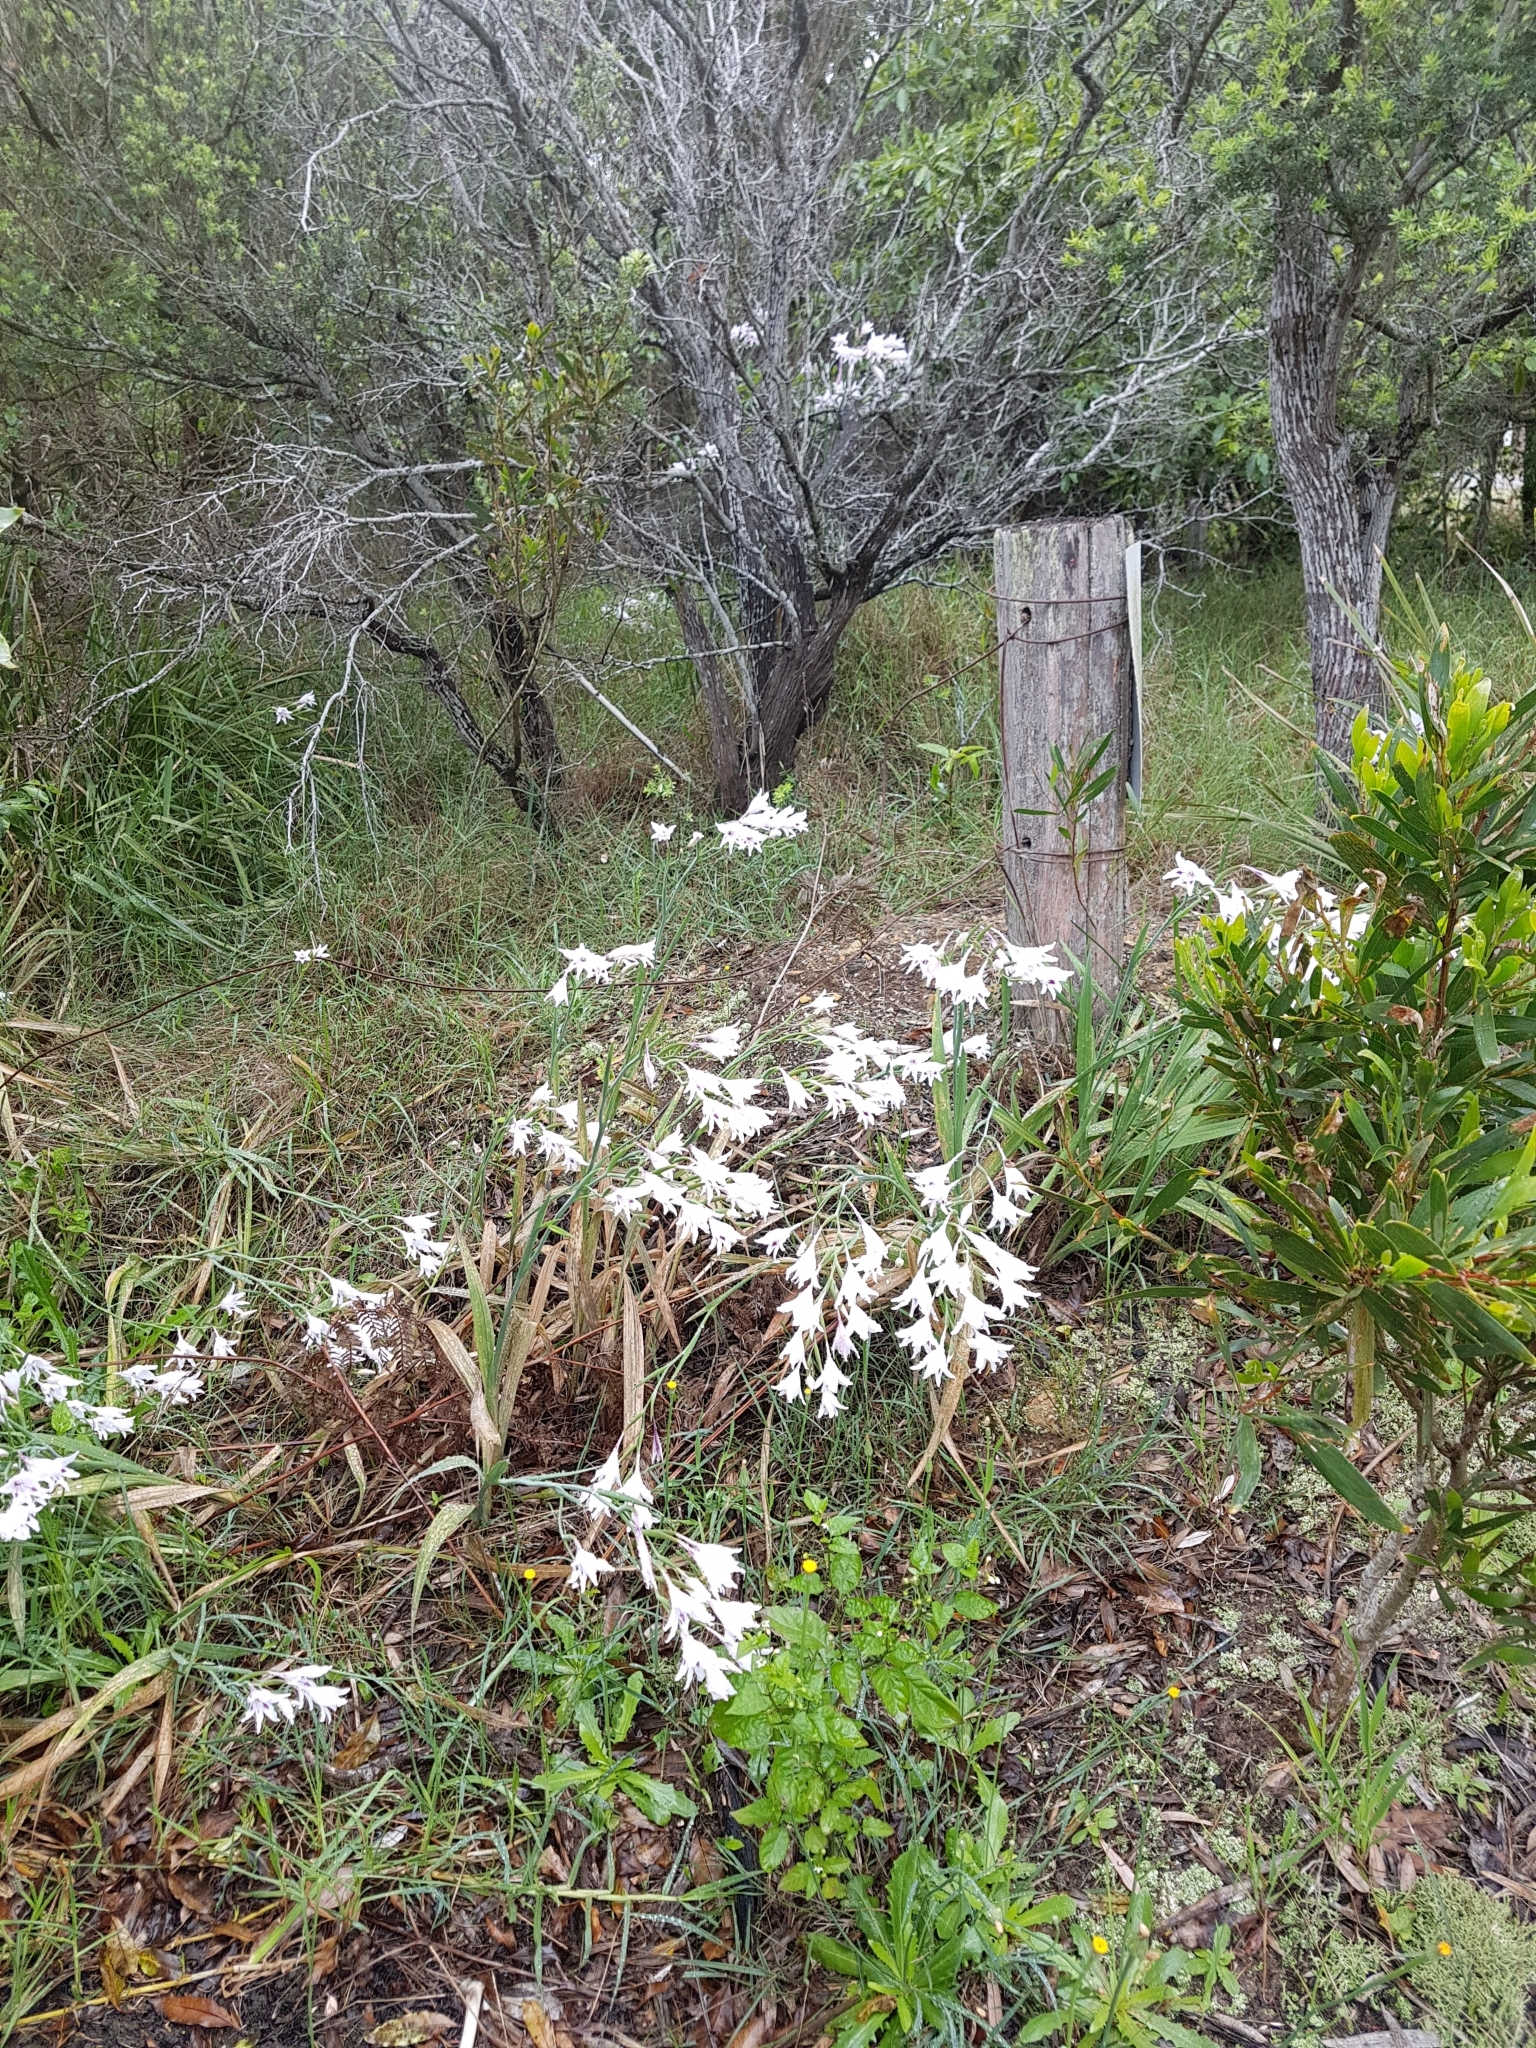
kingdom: Plantae
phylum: Tracheophyta
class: Liliopsida
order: Asparagales
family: Iridaceae
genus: Gladiolus
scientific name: Gladiolus carneus
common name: Painted-lady
